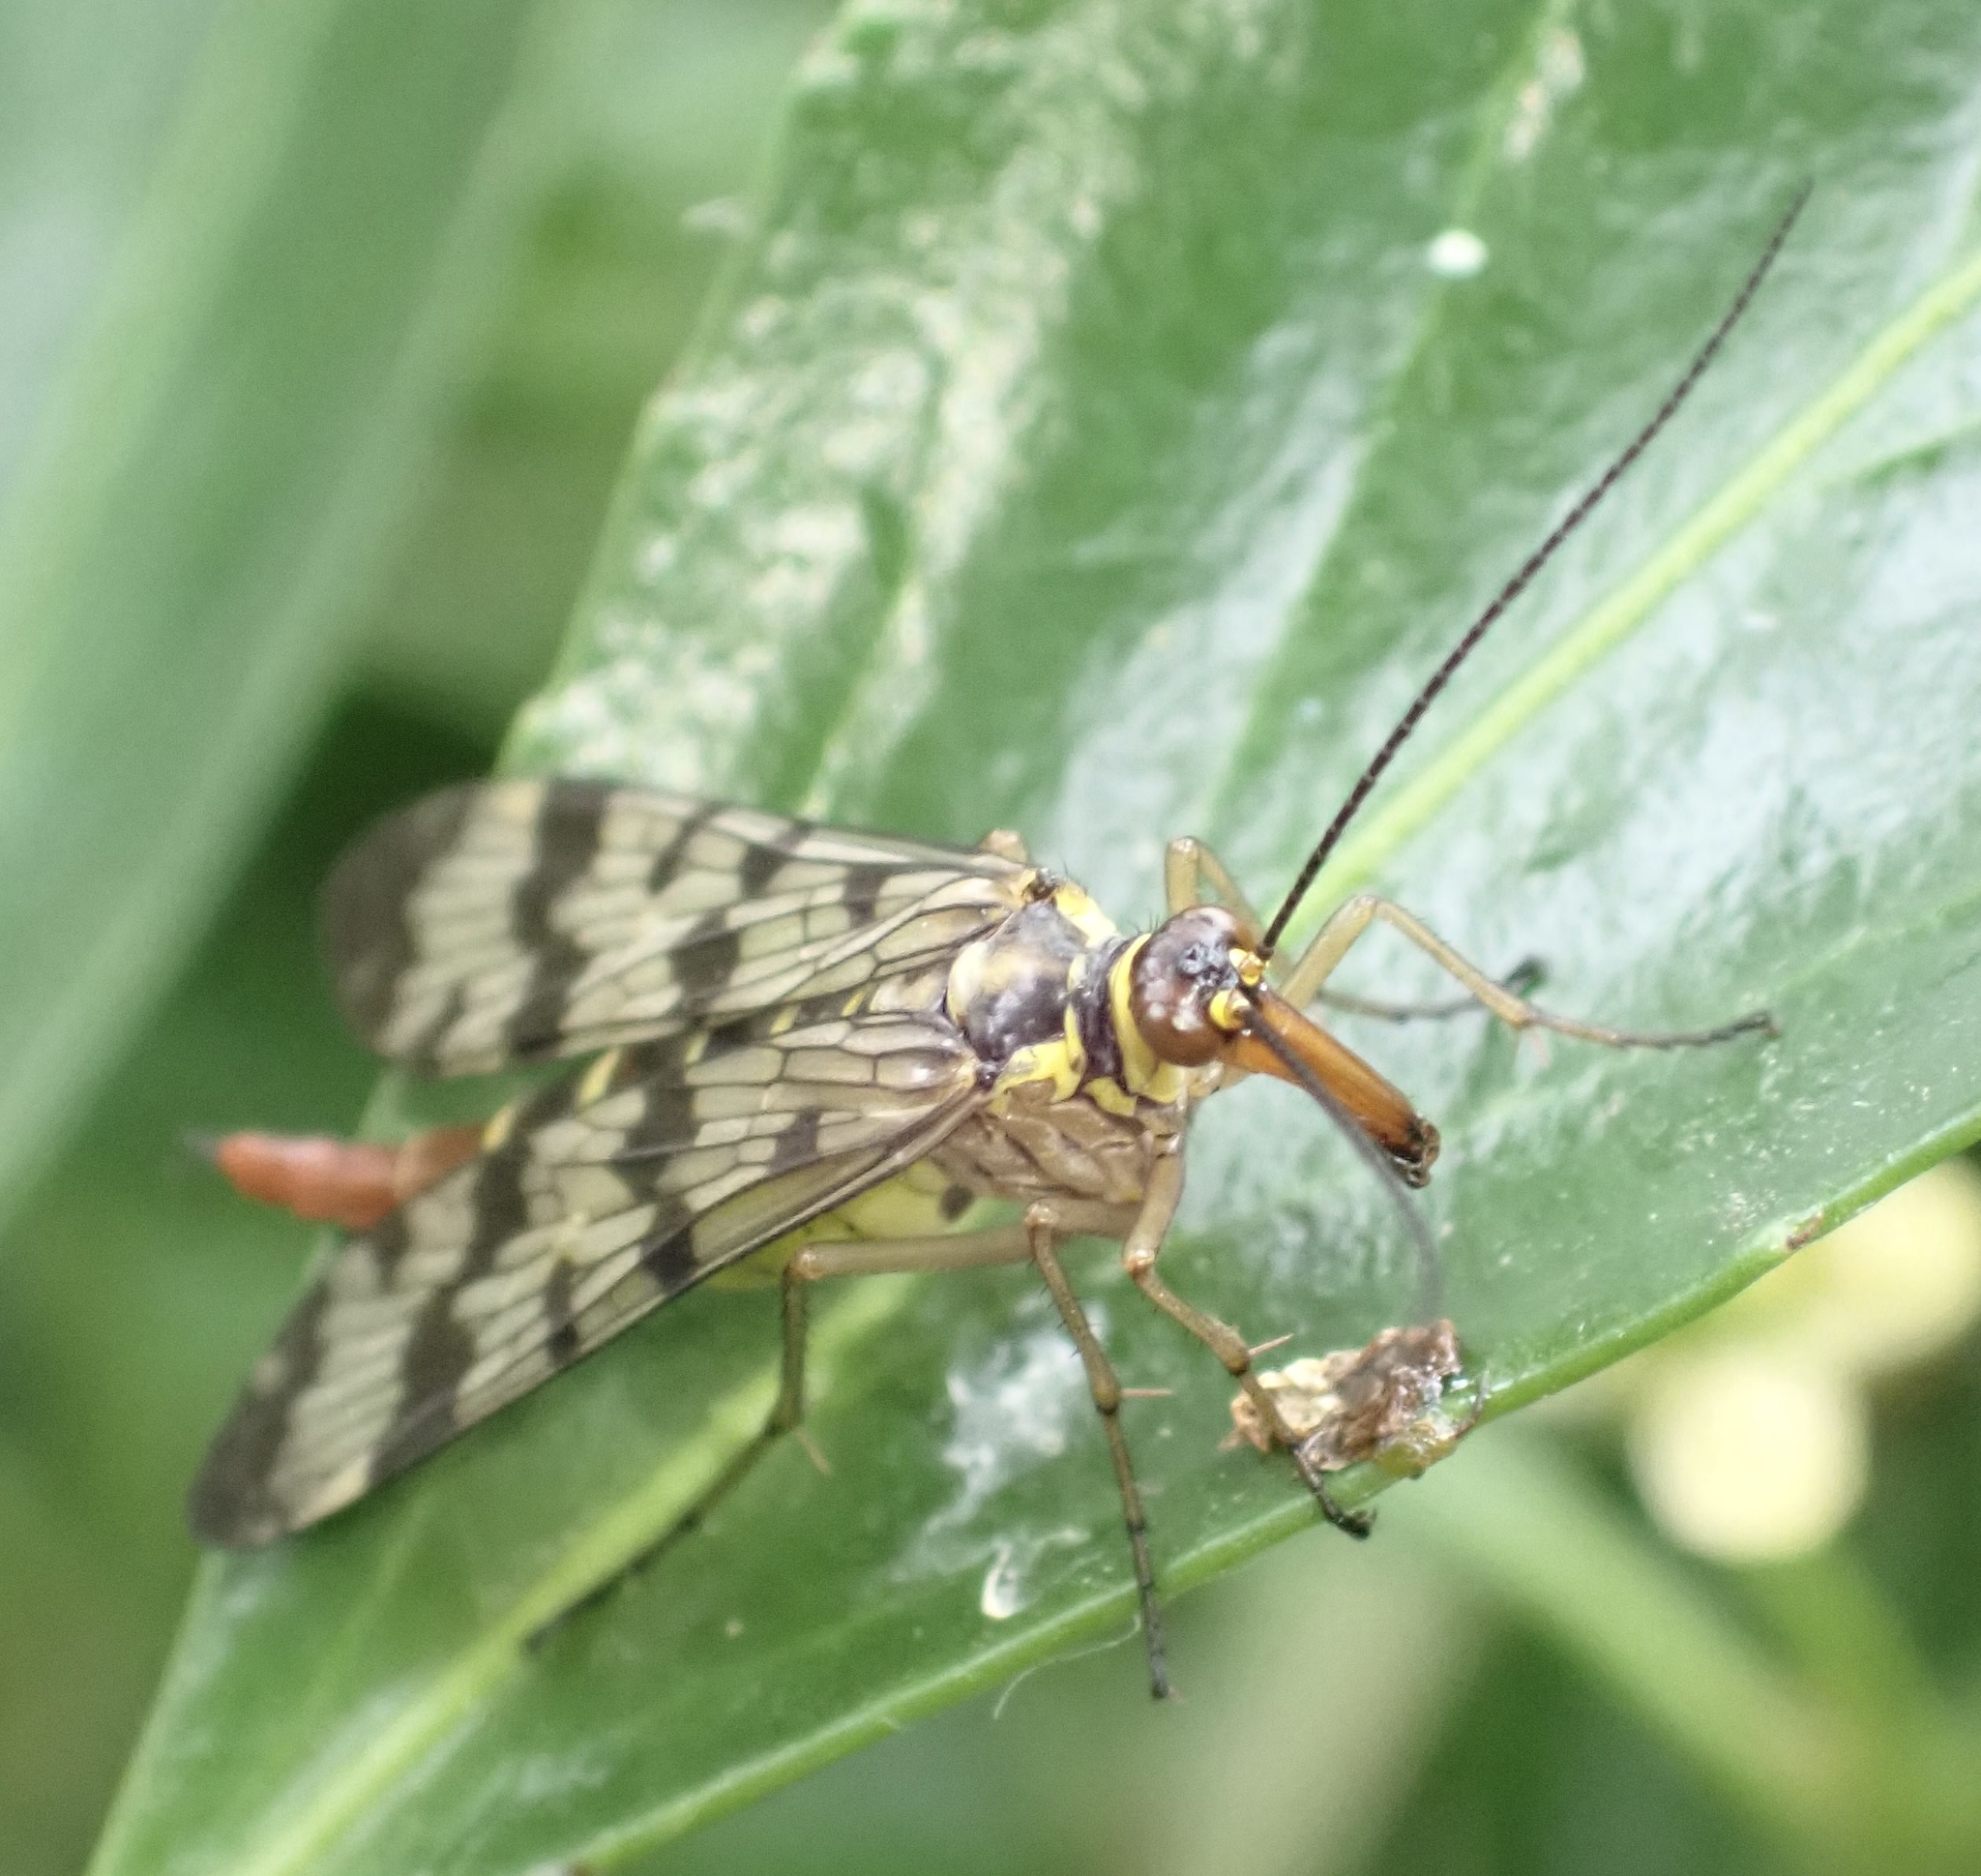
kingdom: Animalia
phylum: Arthropoda
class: Insecta
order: Mecoptera
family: Panorpidae
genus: Panorpa
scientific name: Panorpa communis
